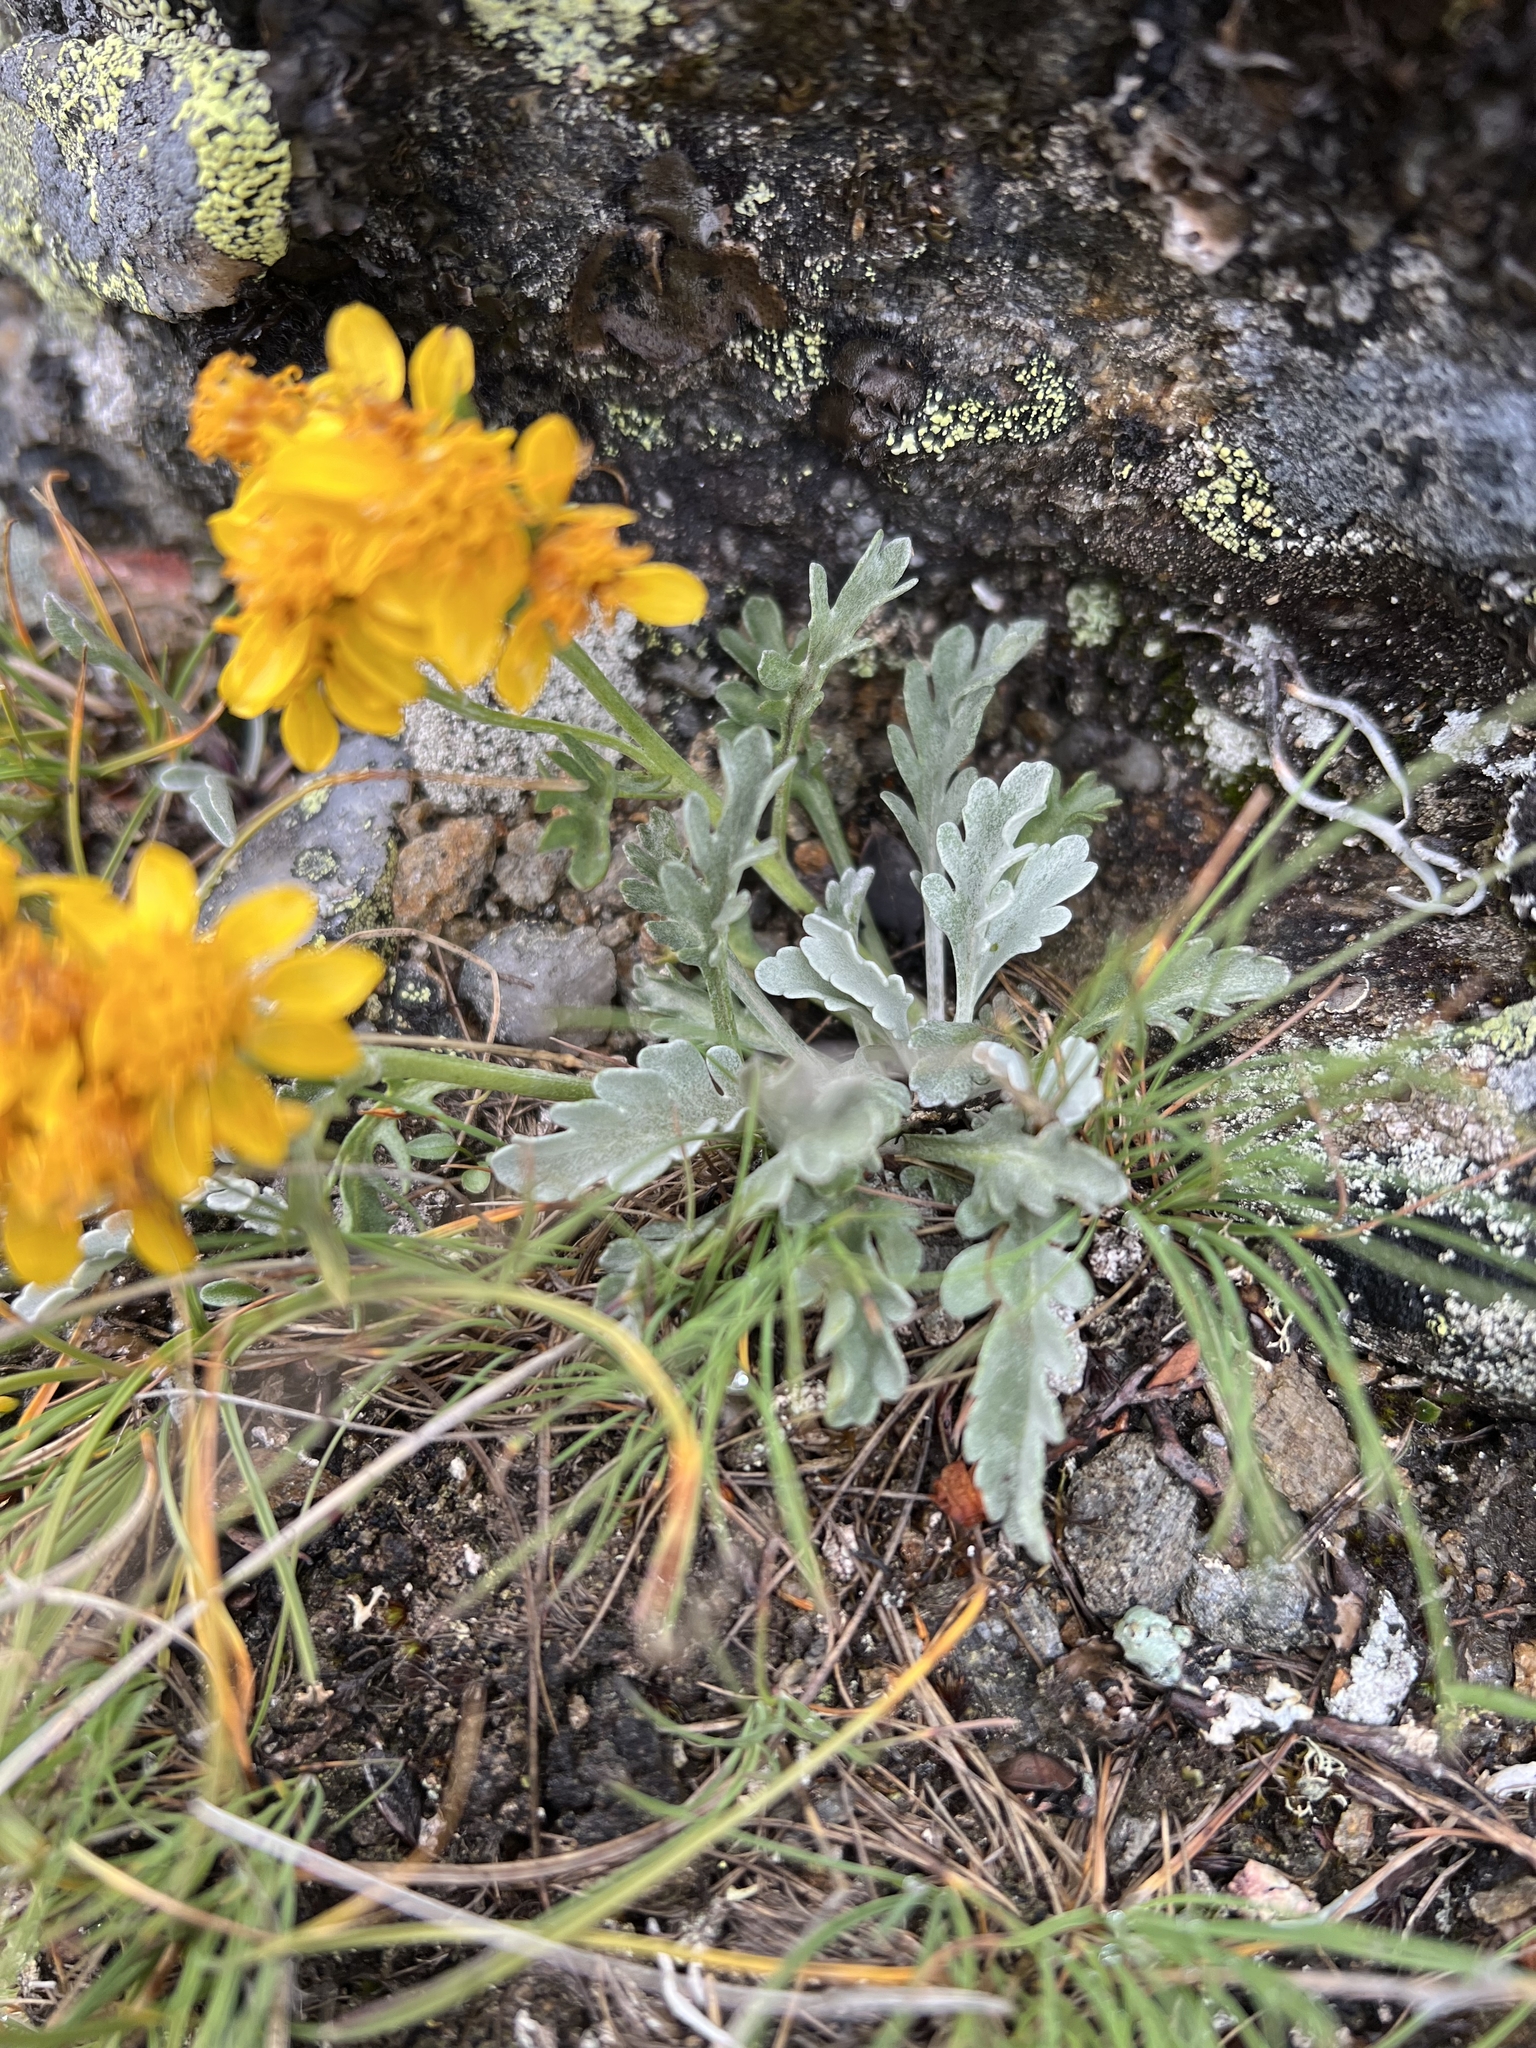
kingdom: Plantae
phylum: Tracheophyta
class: Magnoliopsida
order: Asterales
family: Asteraceae
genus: Jacobaea
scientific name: Jacobaea carniolica
